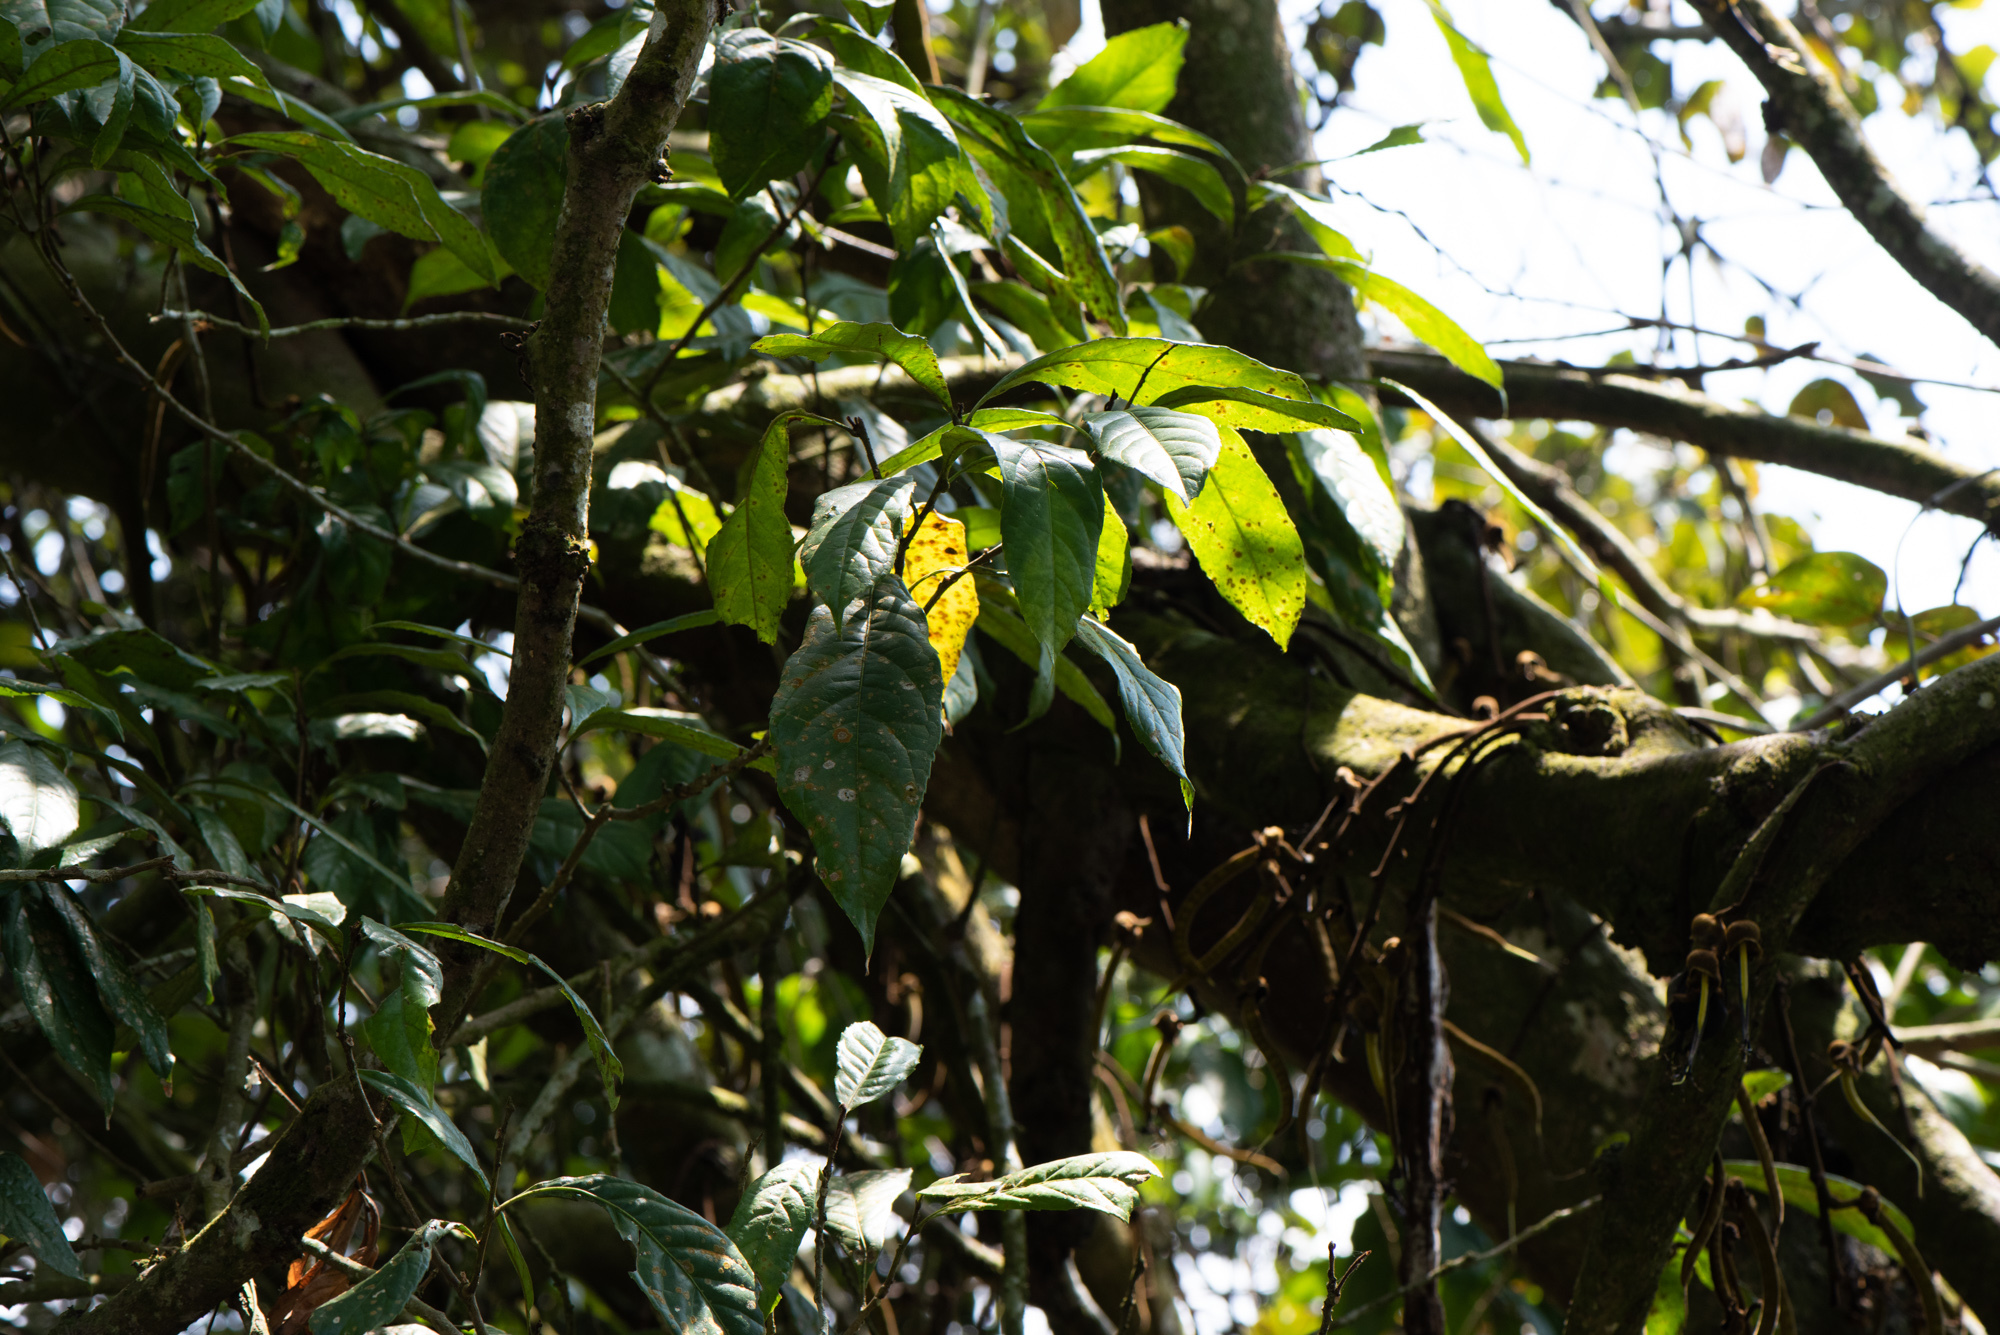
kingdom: Plantae
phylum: Tracheophyta
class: Magnoliopsida
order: Proteales
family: Proteaceae
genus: Helicia
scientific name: Helicia formosana
